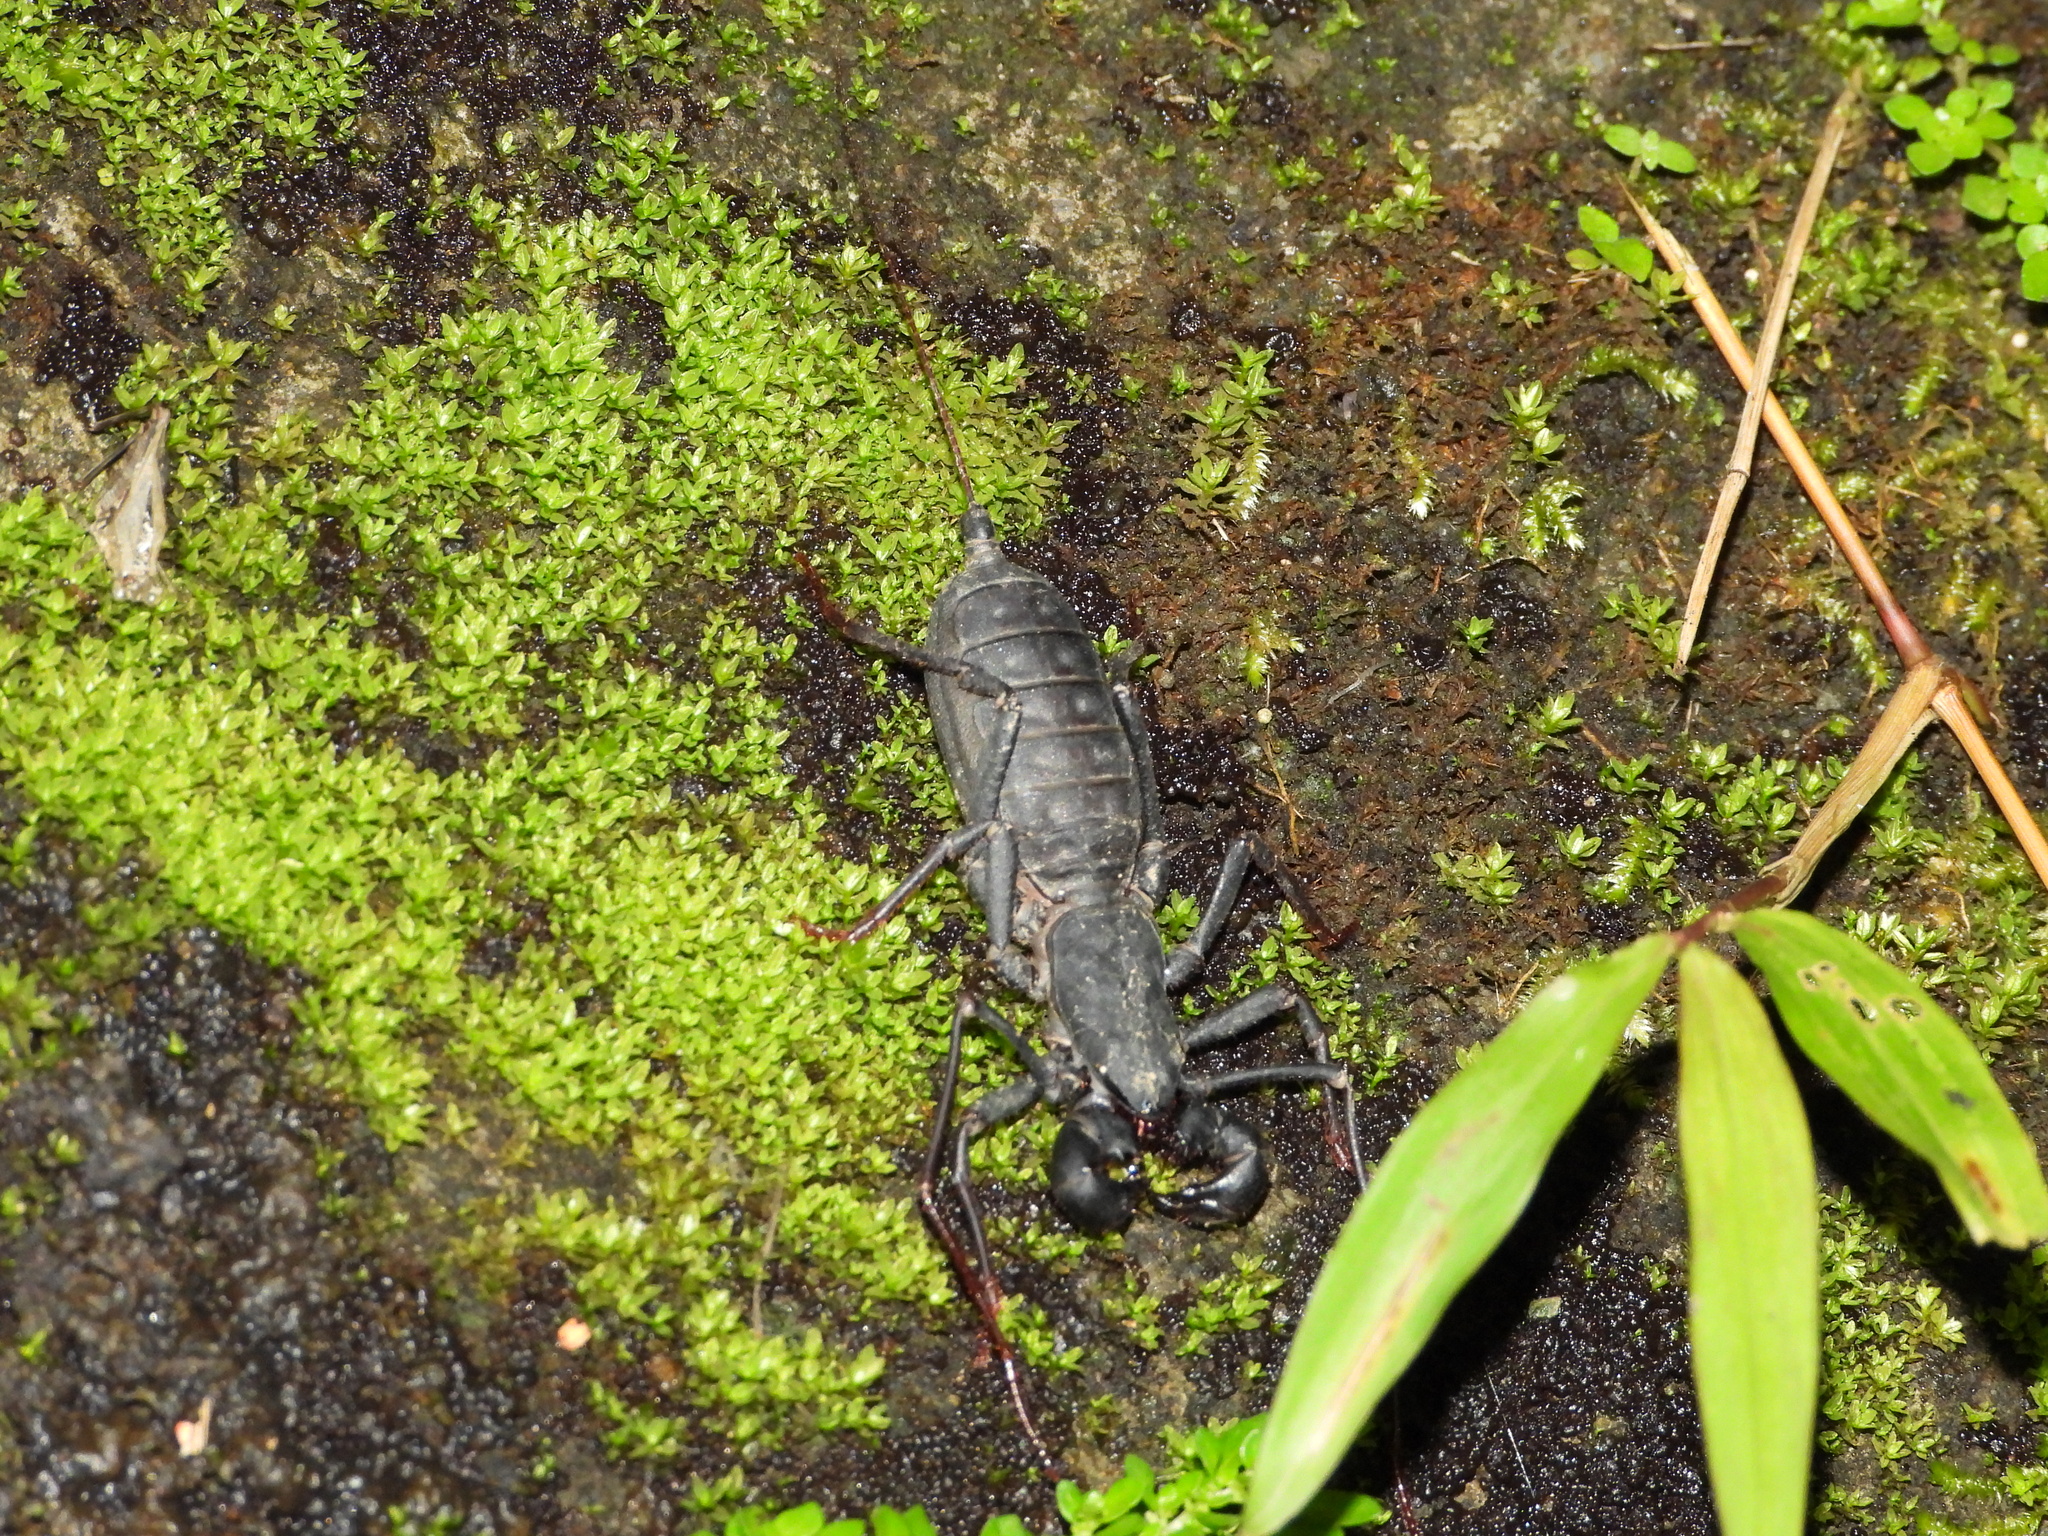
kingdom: Animalia
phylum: Arthropoda
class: Arachnida
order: Uropygi
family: Thelyphonidae
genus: Typopeltis
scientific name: Typopeltis crucifer
